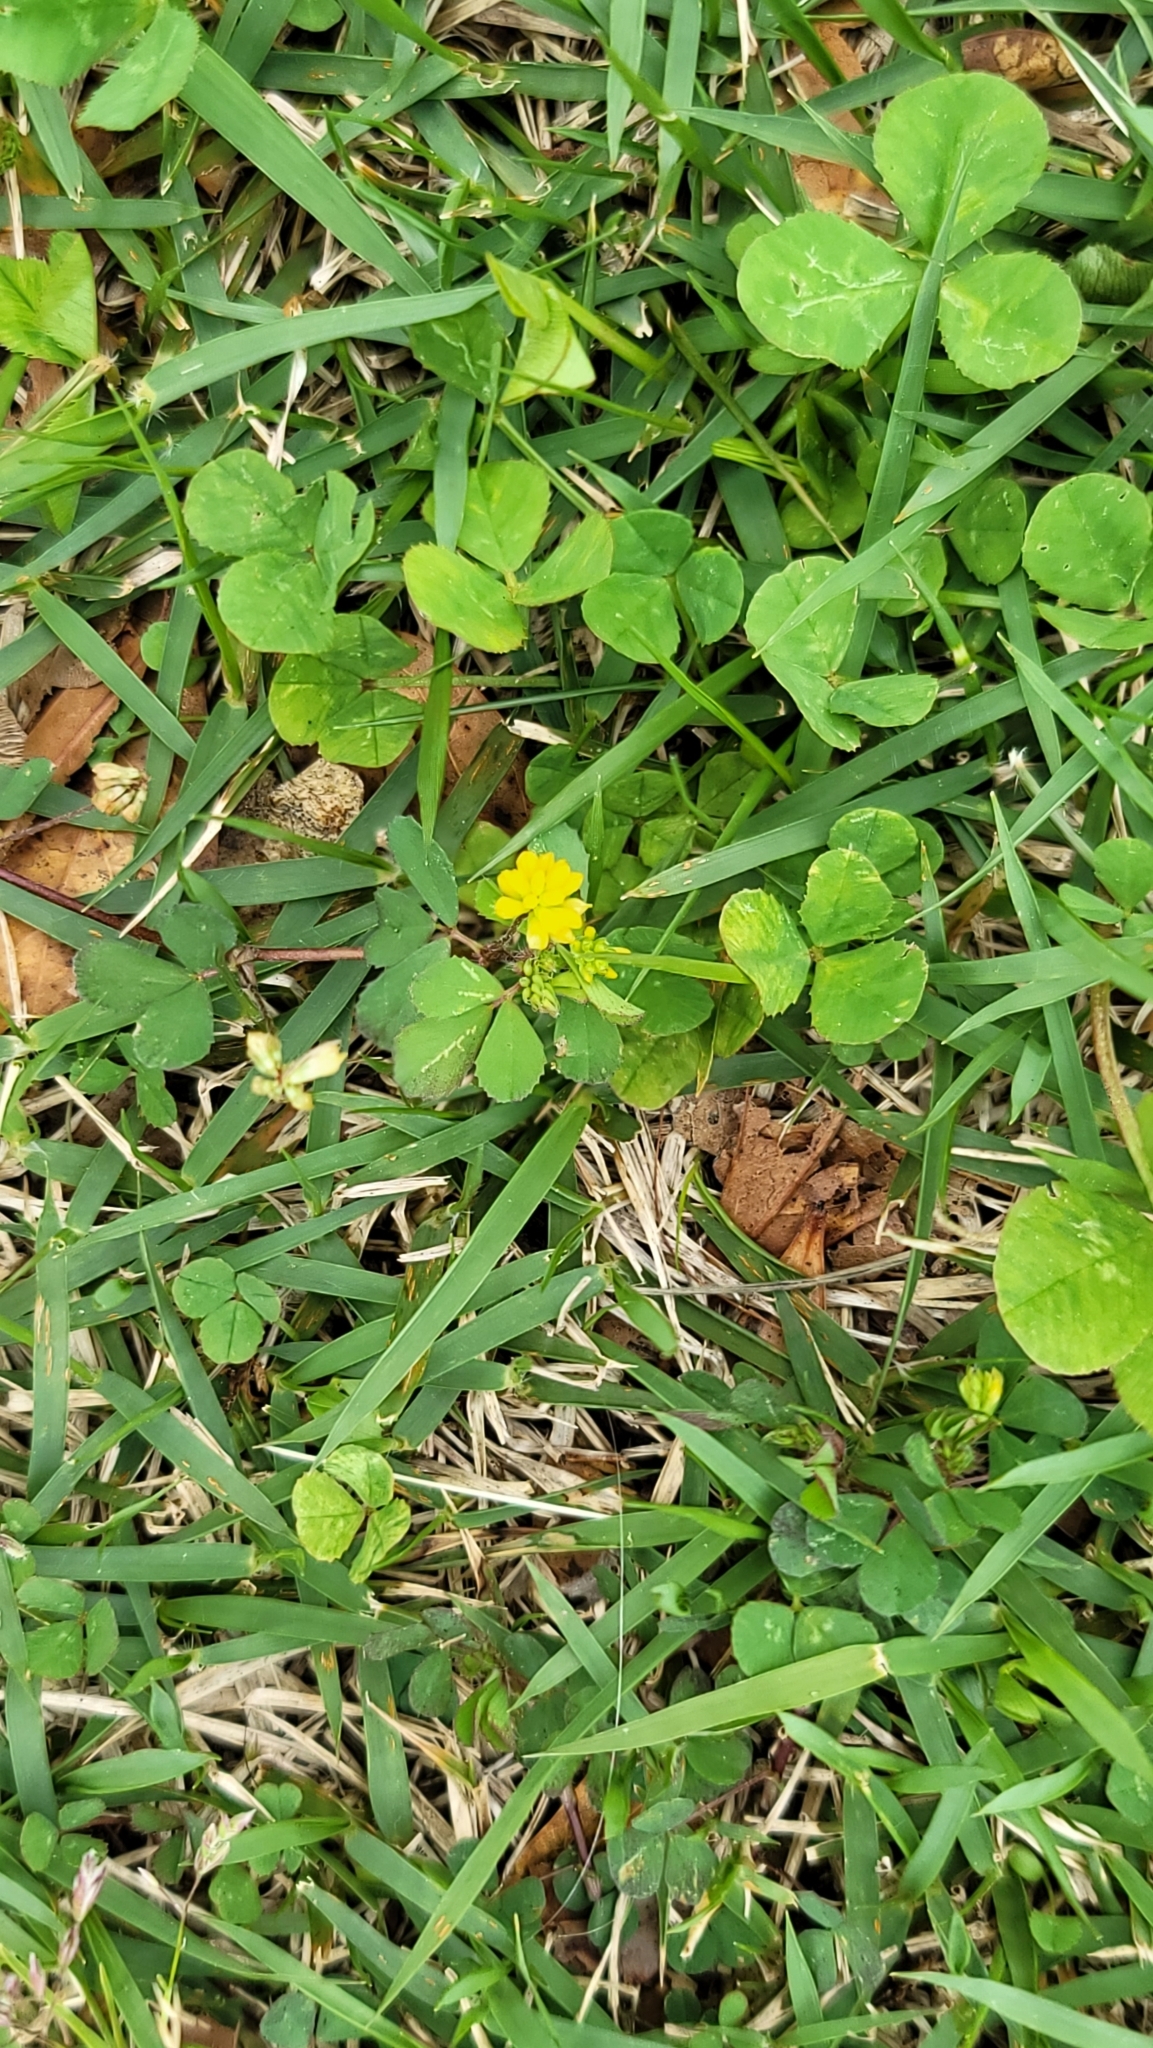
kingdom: Plantae
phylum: Tracheophyta
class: Magnoliopsida
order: Fabales
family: Fabaceae
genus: Trifolium
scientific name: Trifolium dubium
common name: Suckling clover
